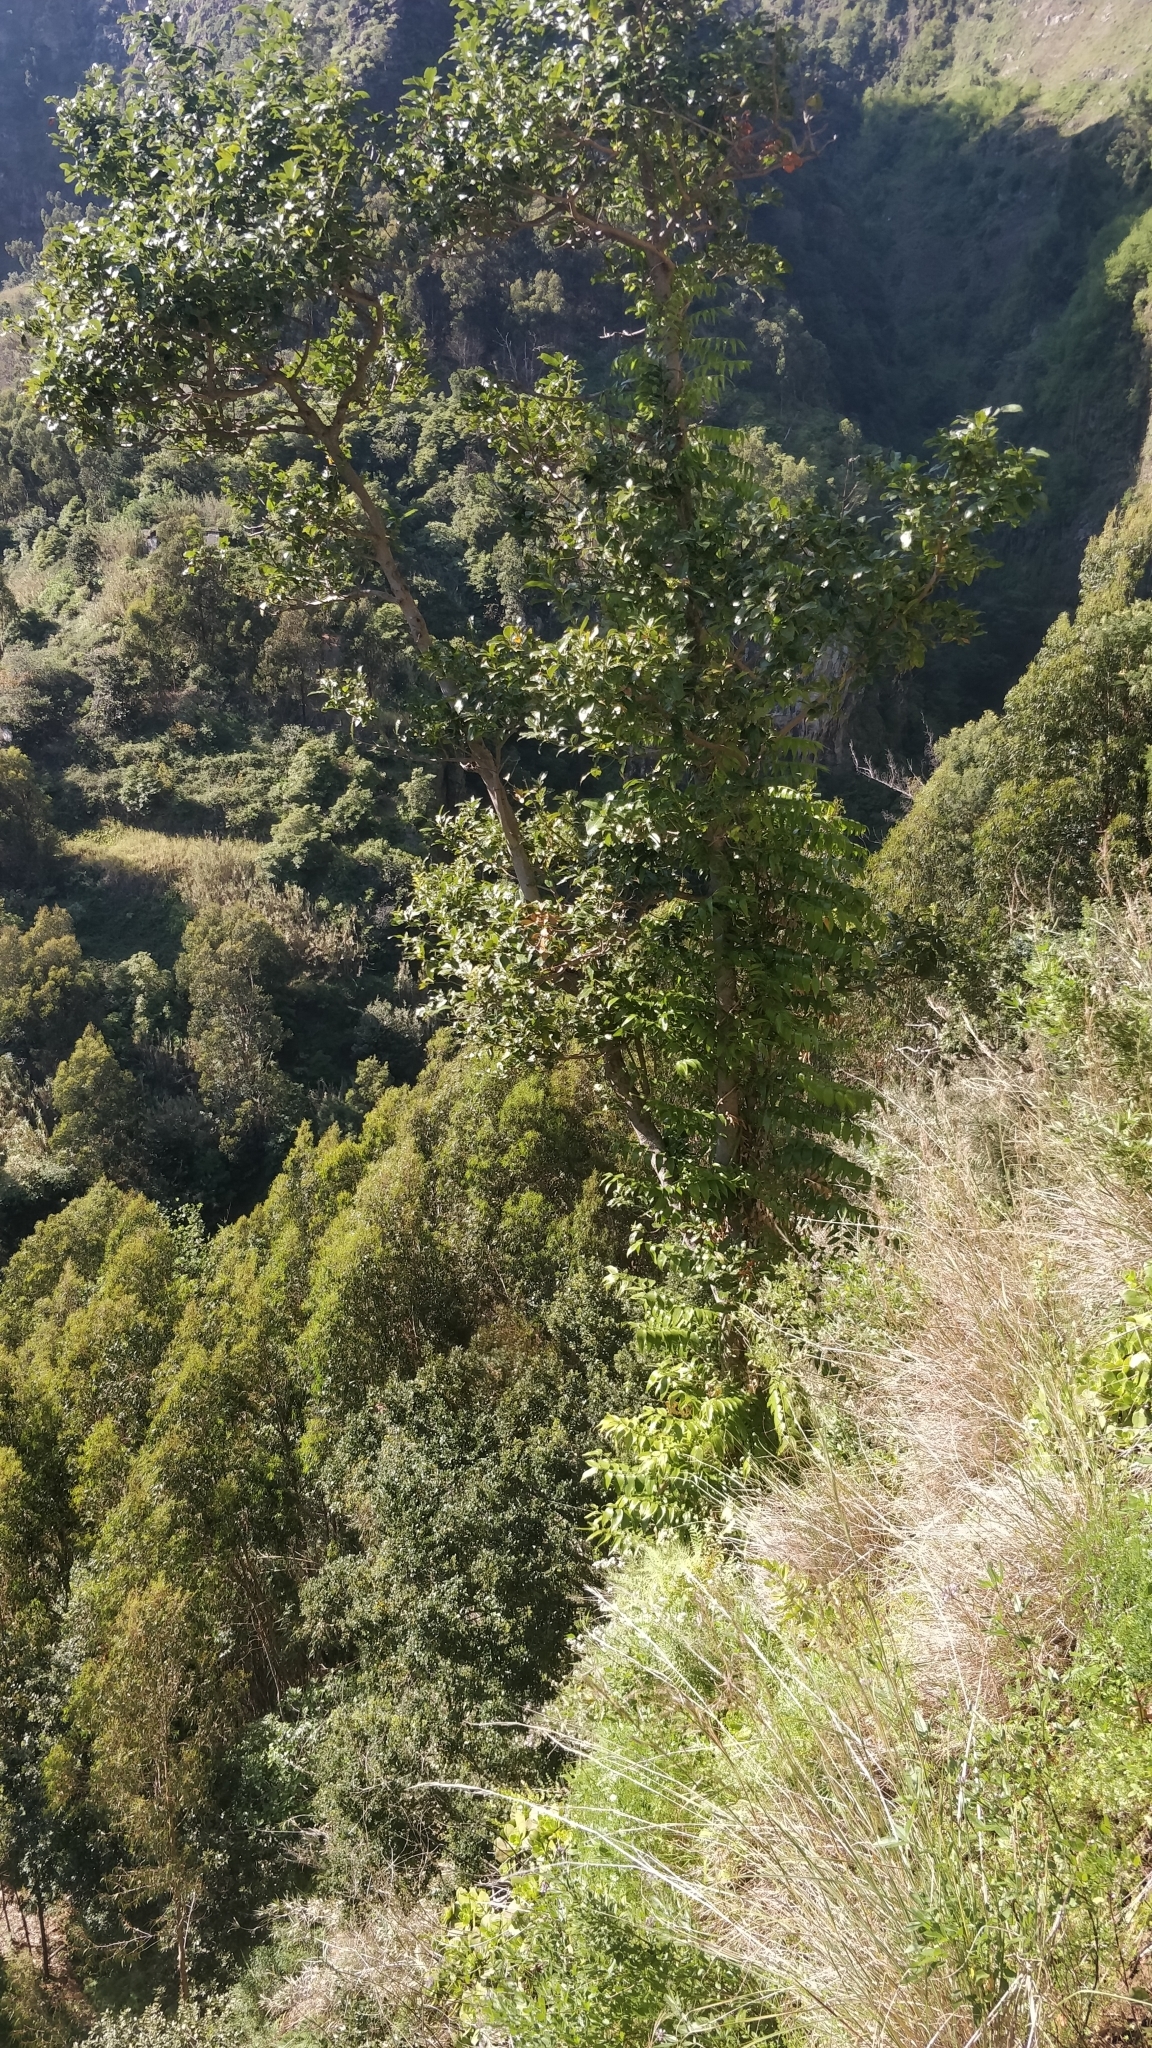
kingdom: Plantae
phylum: Tracheophyta
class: Liliopsida
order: Asparagales
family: Asparagaceae
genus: Semele
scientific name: Semele androgyna
